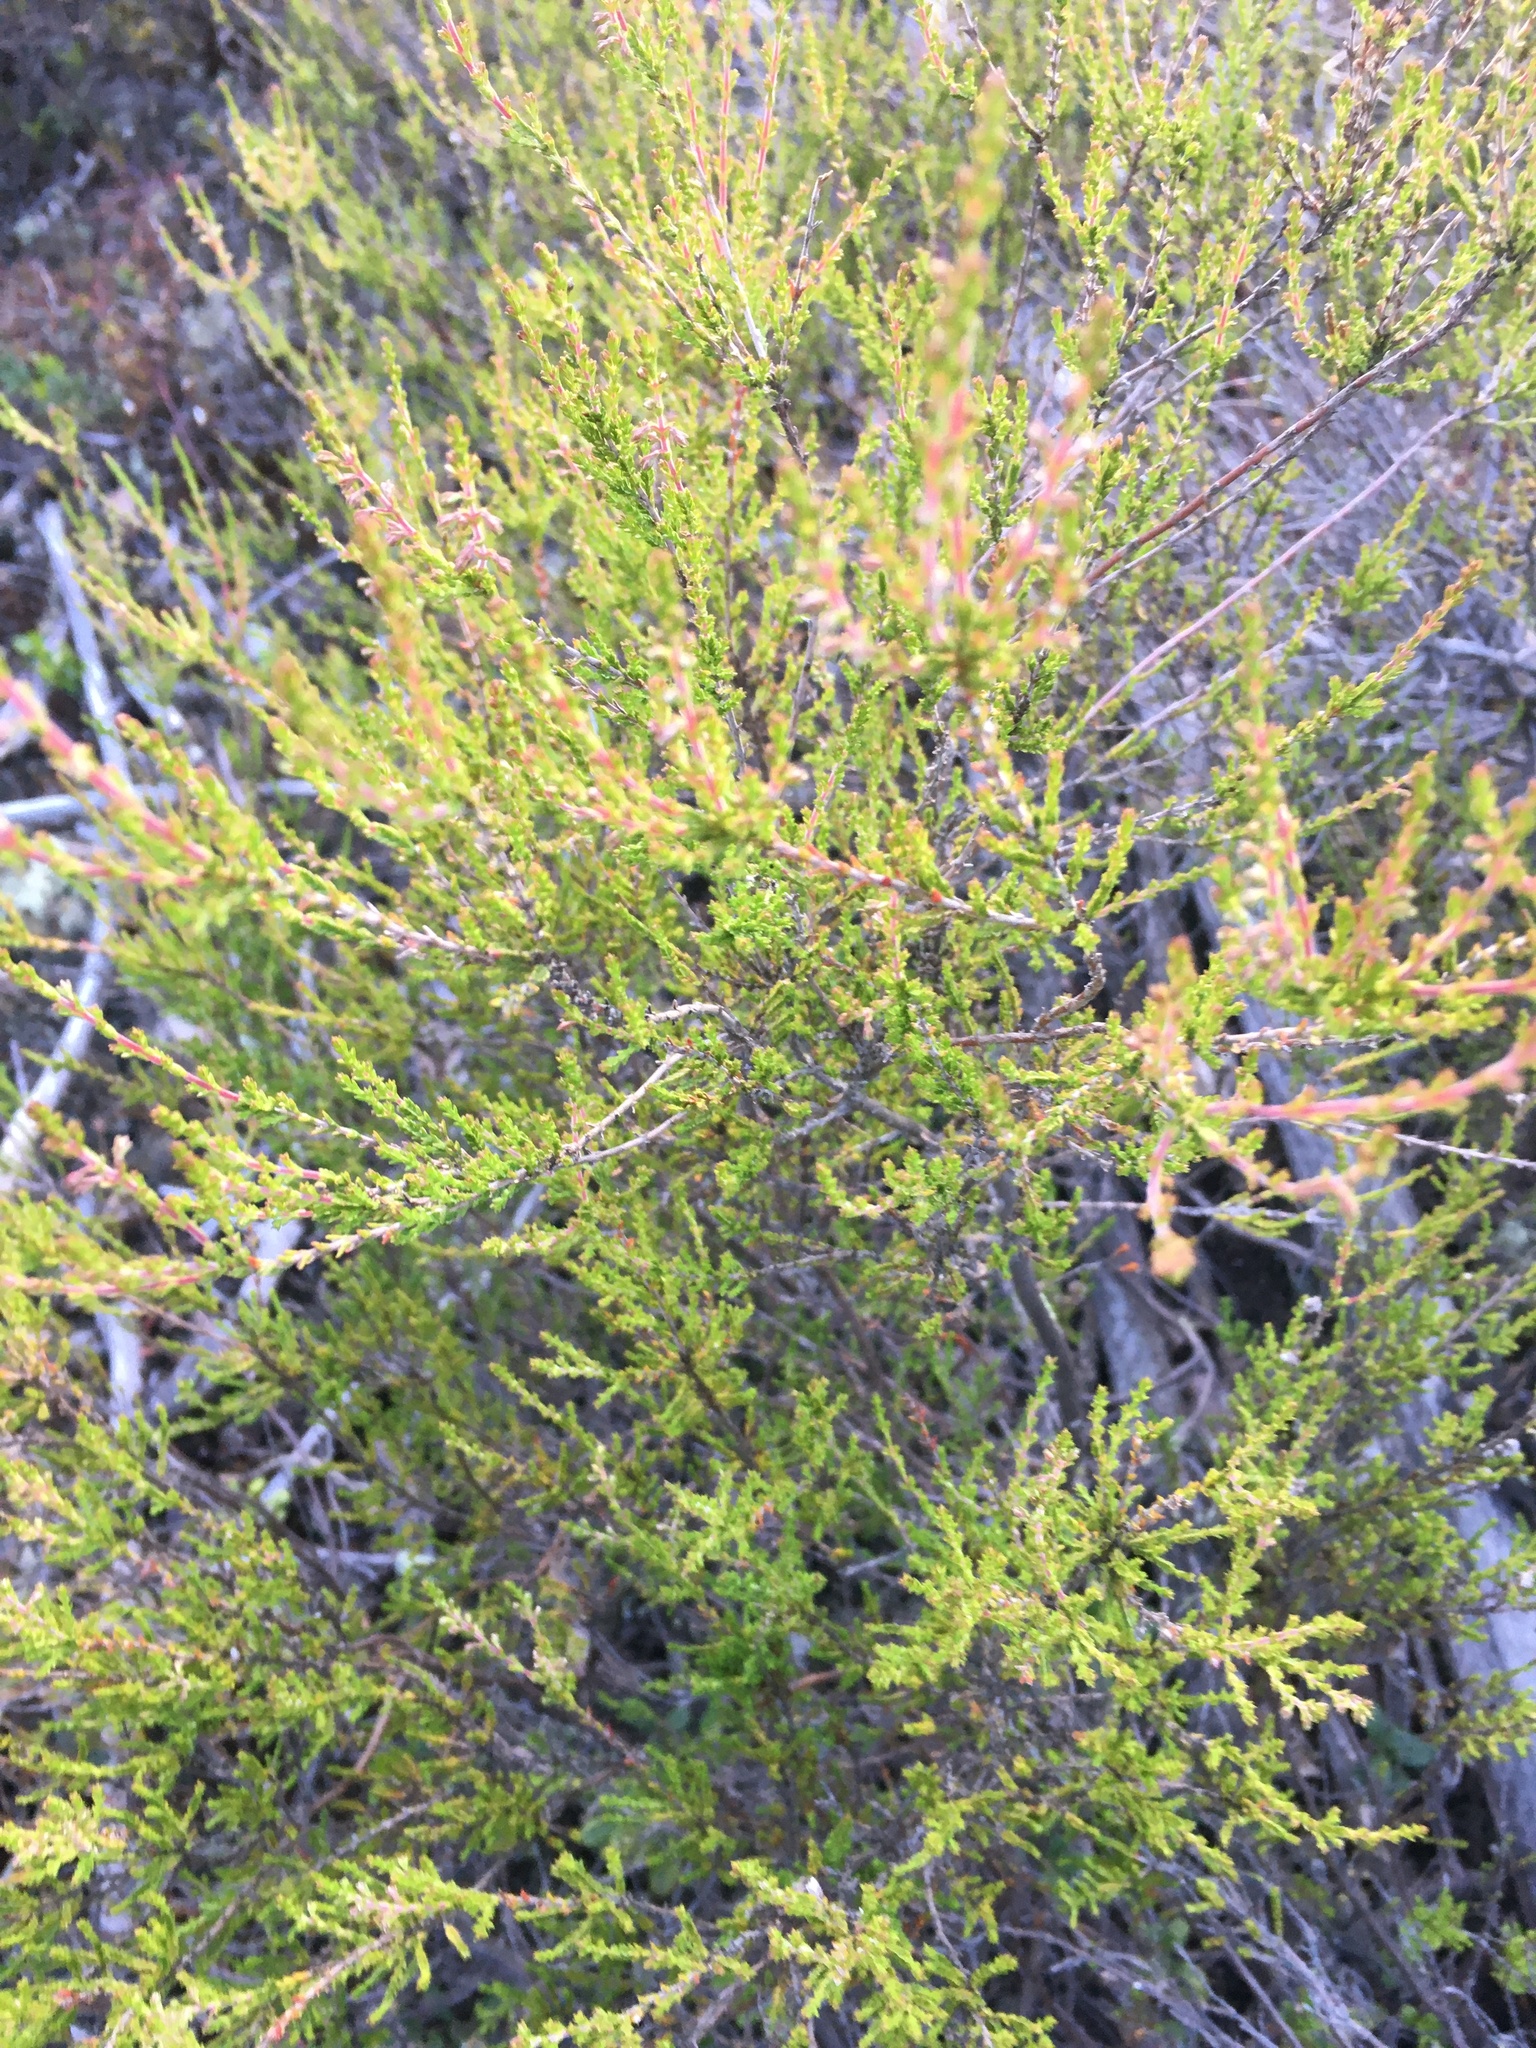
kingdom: Plantae
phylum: Tracheophyta
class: Magnoliopsida
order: Ericales
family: Ericaceae
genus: Calluna
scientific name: Calluna vulgaris
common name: Heather
